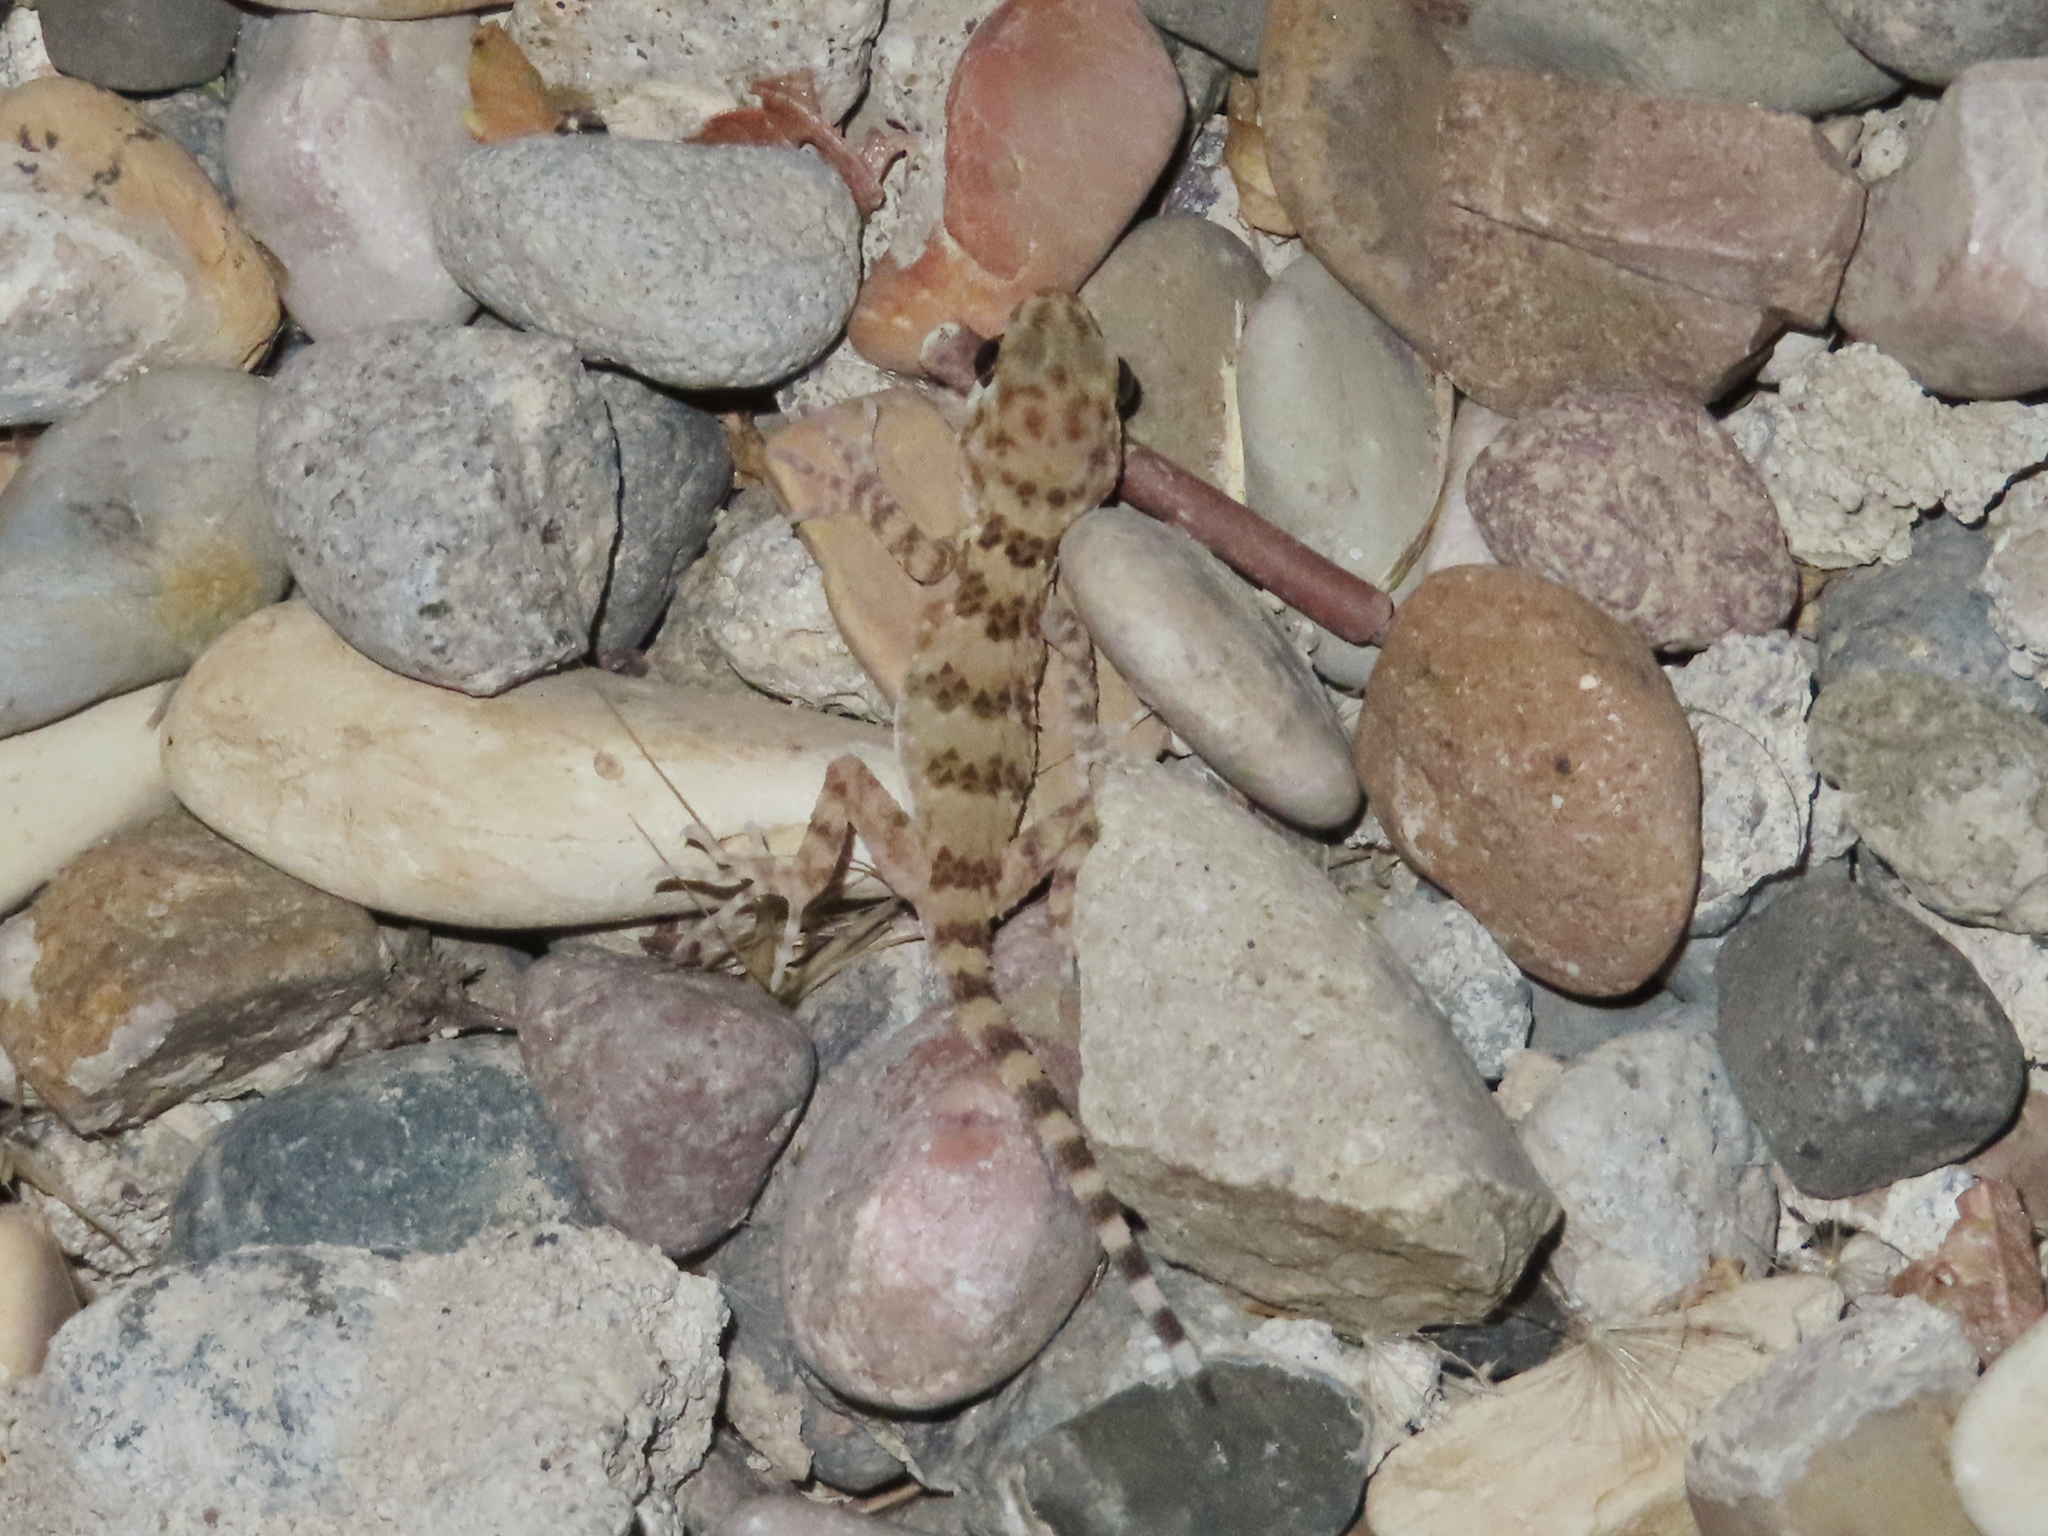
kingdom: Animalia
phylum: Chordata
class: Squamata
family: Gekkonidae
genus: Tenuidactylus
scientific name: Tenuidactylus caspius
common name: Caspian bent-toed gecko
